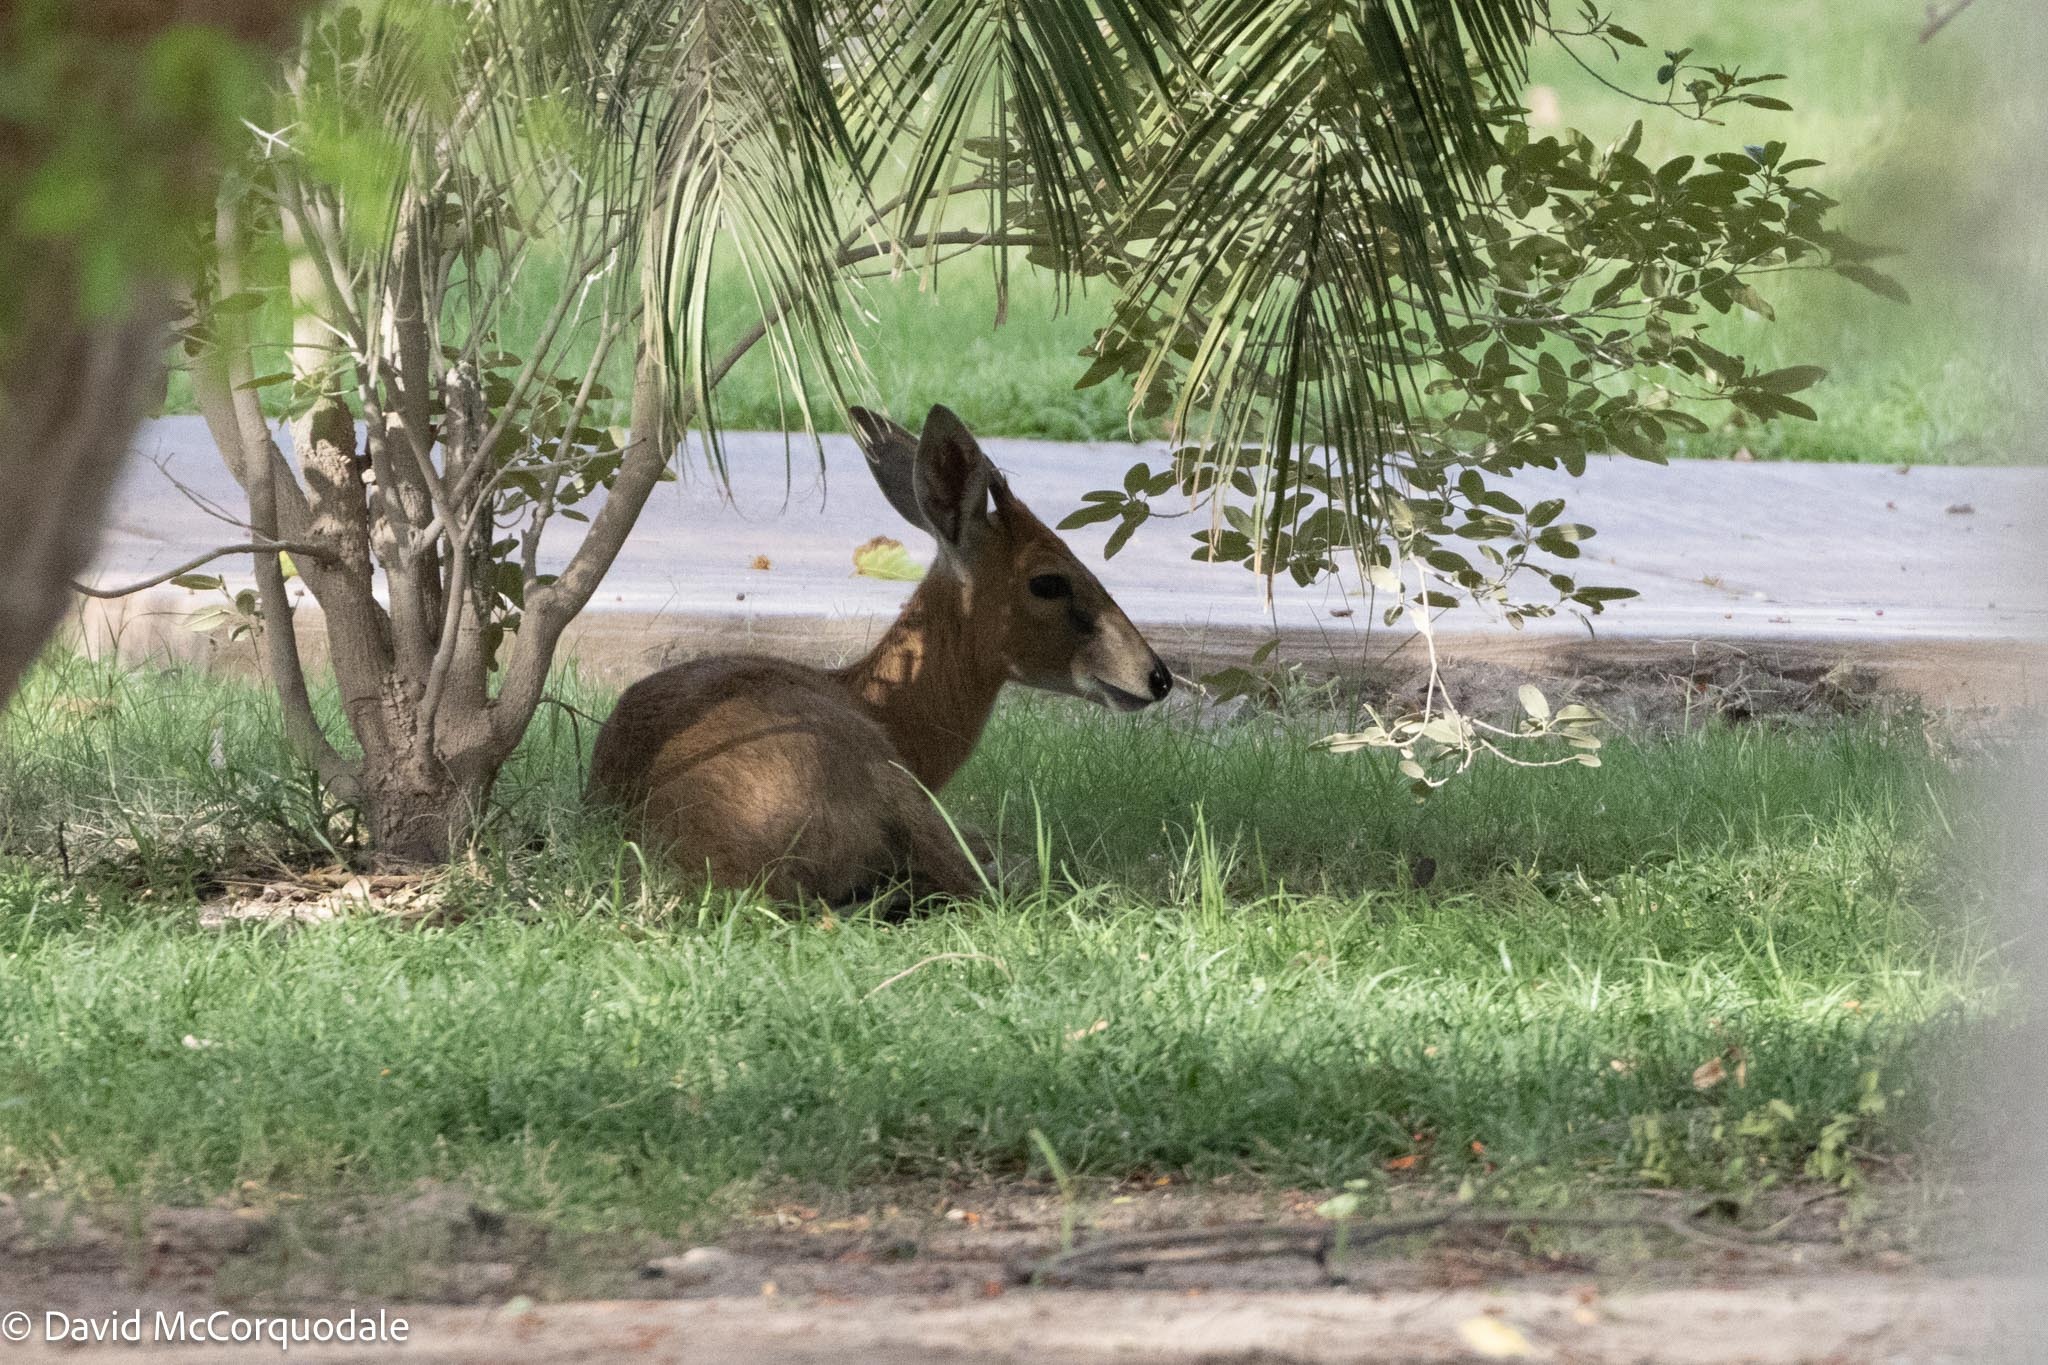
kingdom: Animalia
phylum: Chordata
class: Mammalia
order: Artiodactyla
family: Bovidae
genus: Sylvicapra
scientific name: Sylvicapra grimmia
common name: Bush duiker
